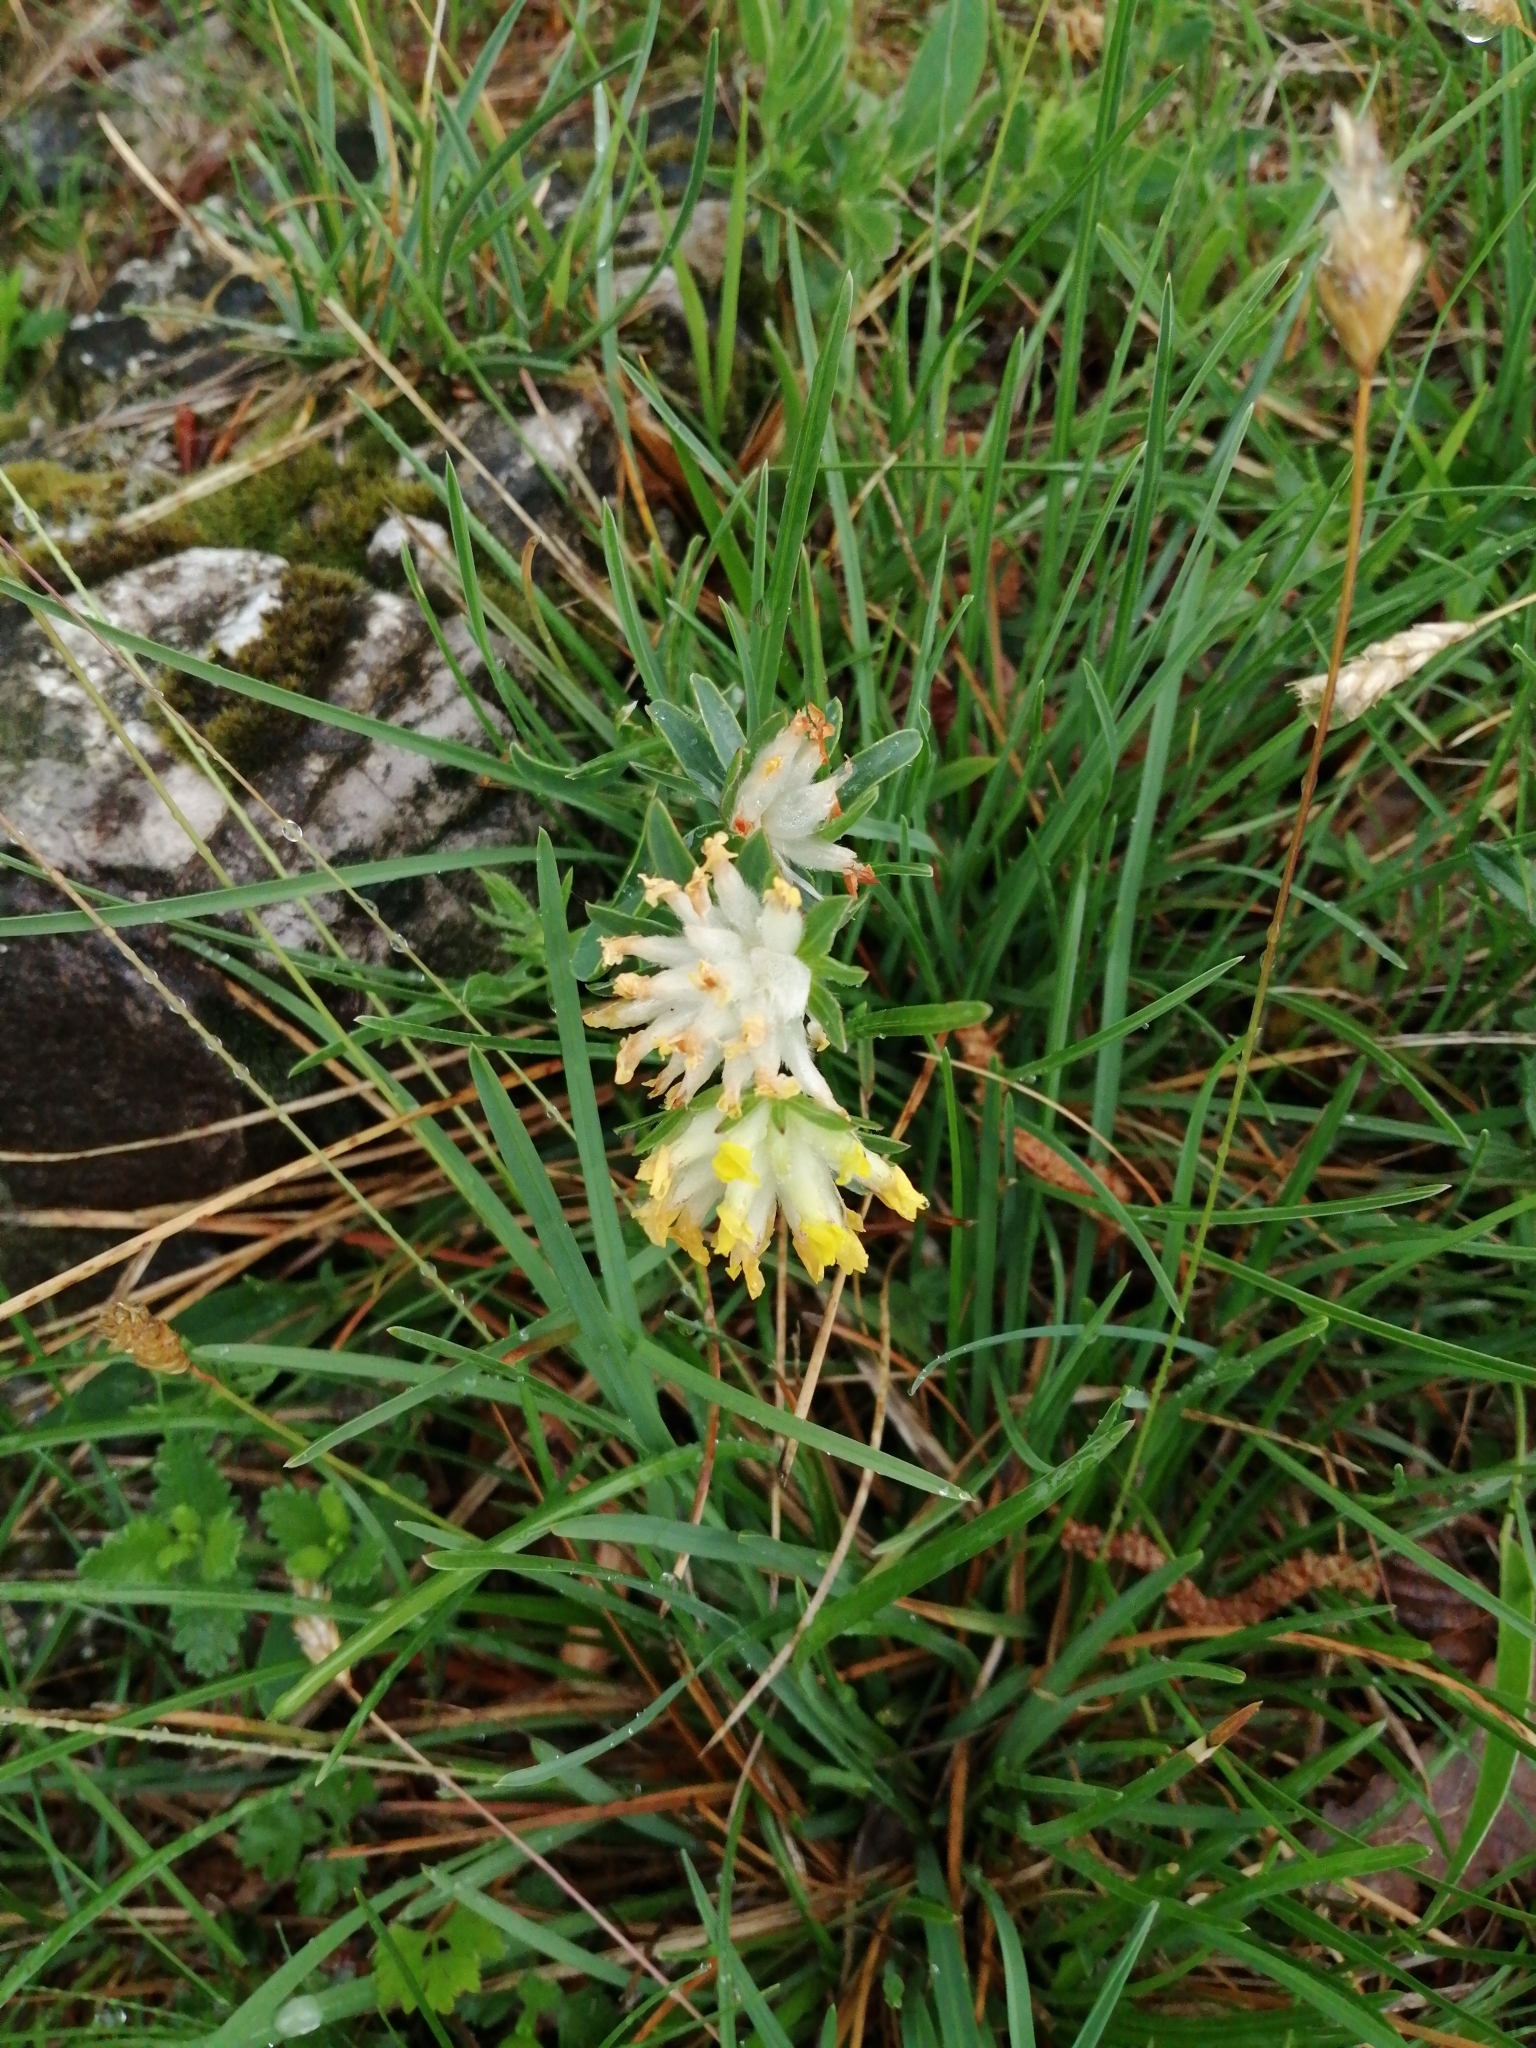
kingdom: Plantae
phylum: Tracheophyta
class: Magnoliopsida
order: Fabales
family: Fabaceae
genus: Anthyllis
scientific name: Anthyllis vulneraria
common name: Kidney vetch
